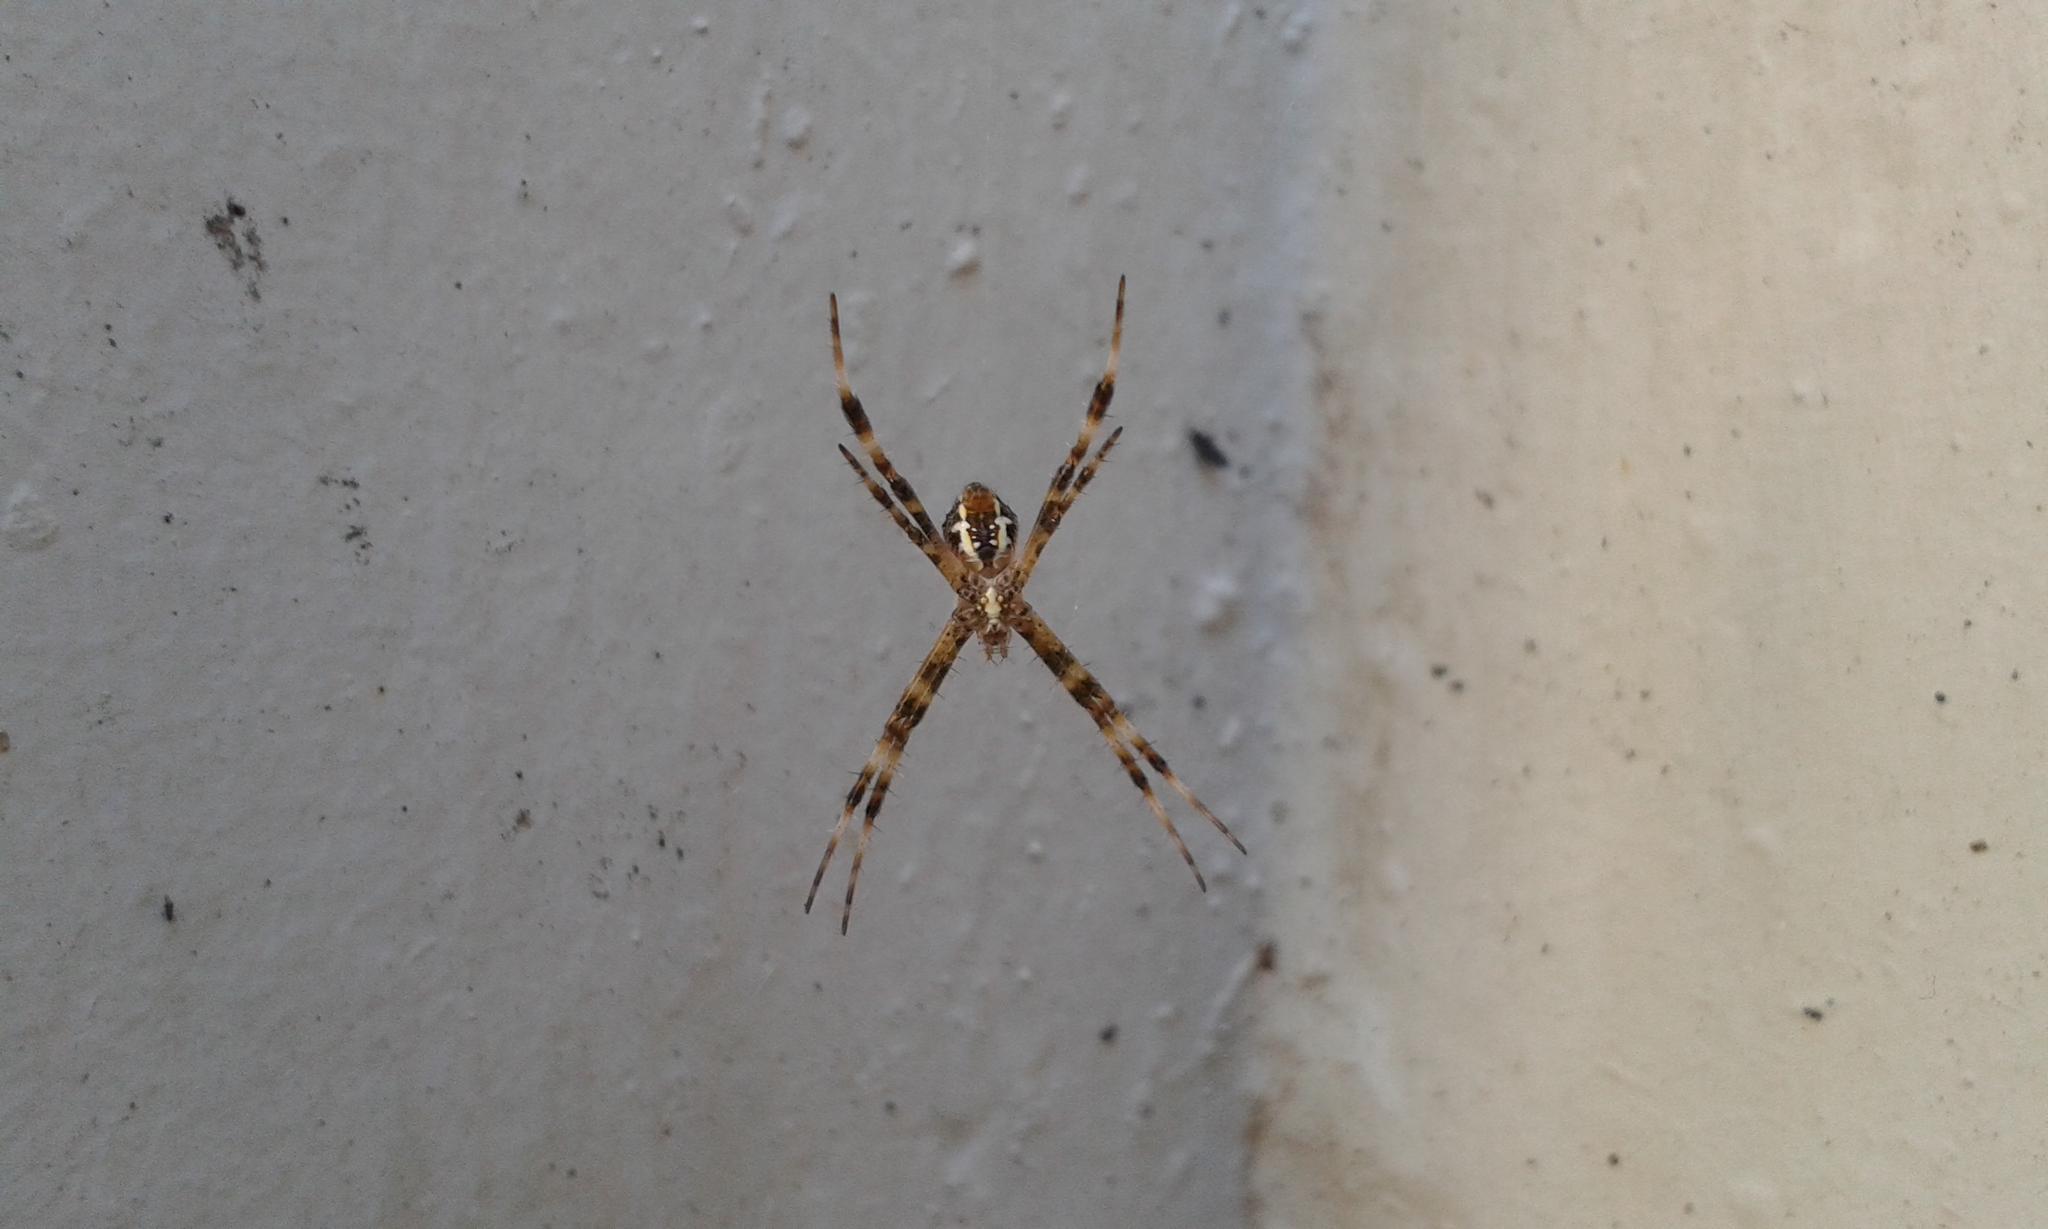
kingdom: Animalia
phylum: Arthropoda
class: Arachnida
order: Araneae
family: Araneidae
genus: Argiope
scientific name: Argiope appensa
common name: Garden spider
